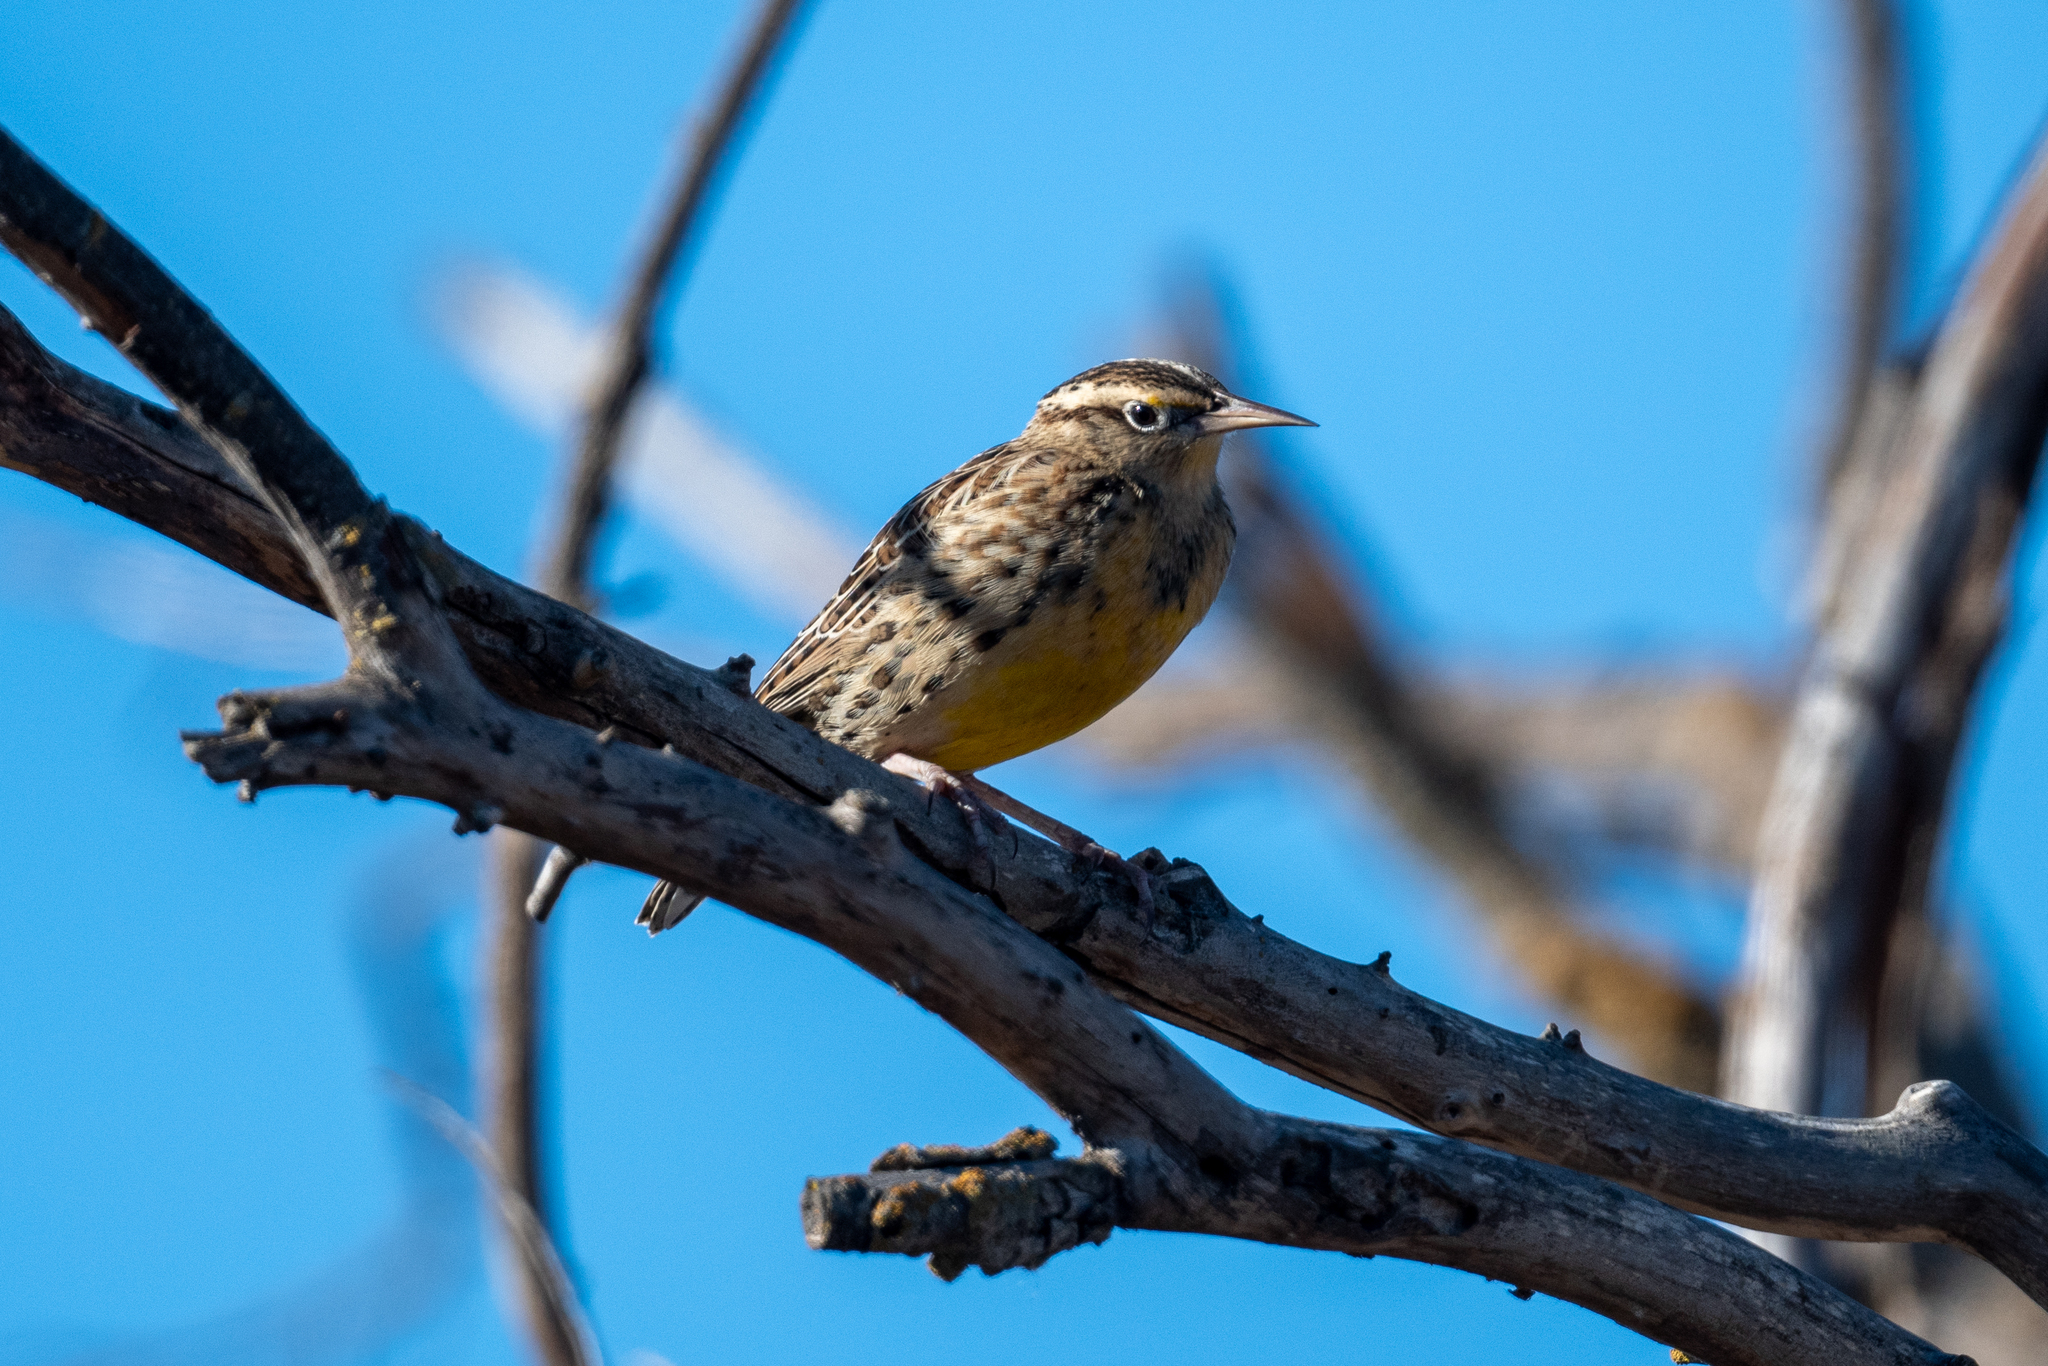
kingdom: Animalia
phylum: Chordata
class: Aves
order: Passeriformes
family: Icteridae
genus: Sturnella
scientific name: Sturnella neglecta
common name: Western meadowlark
